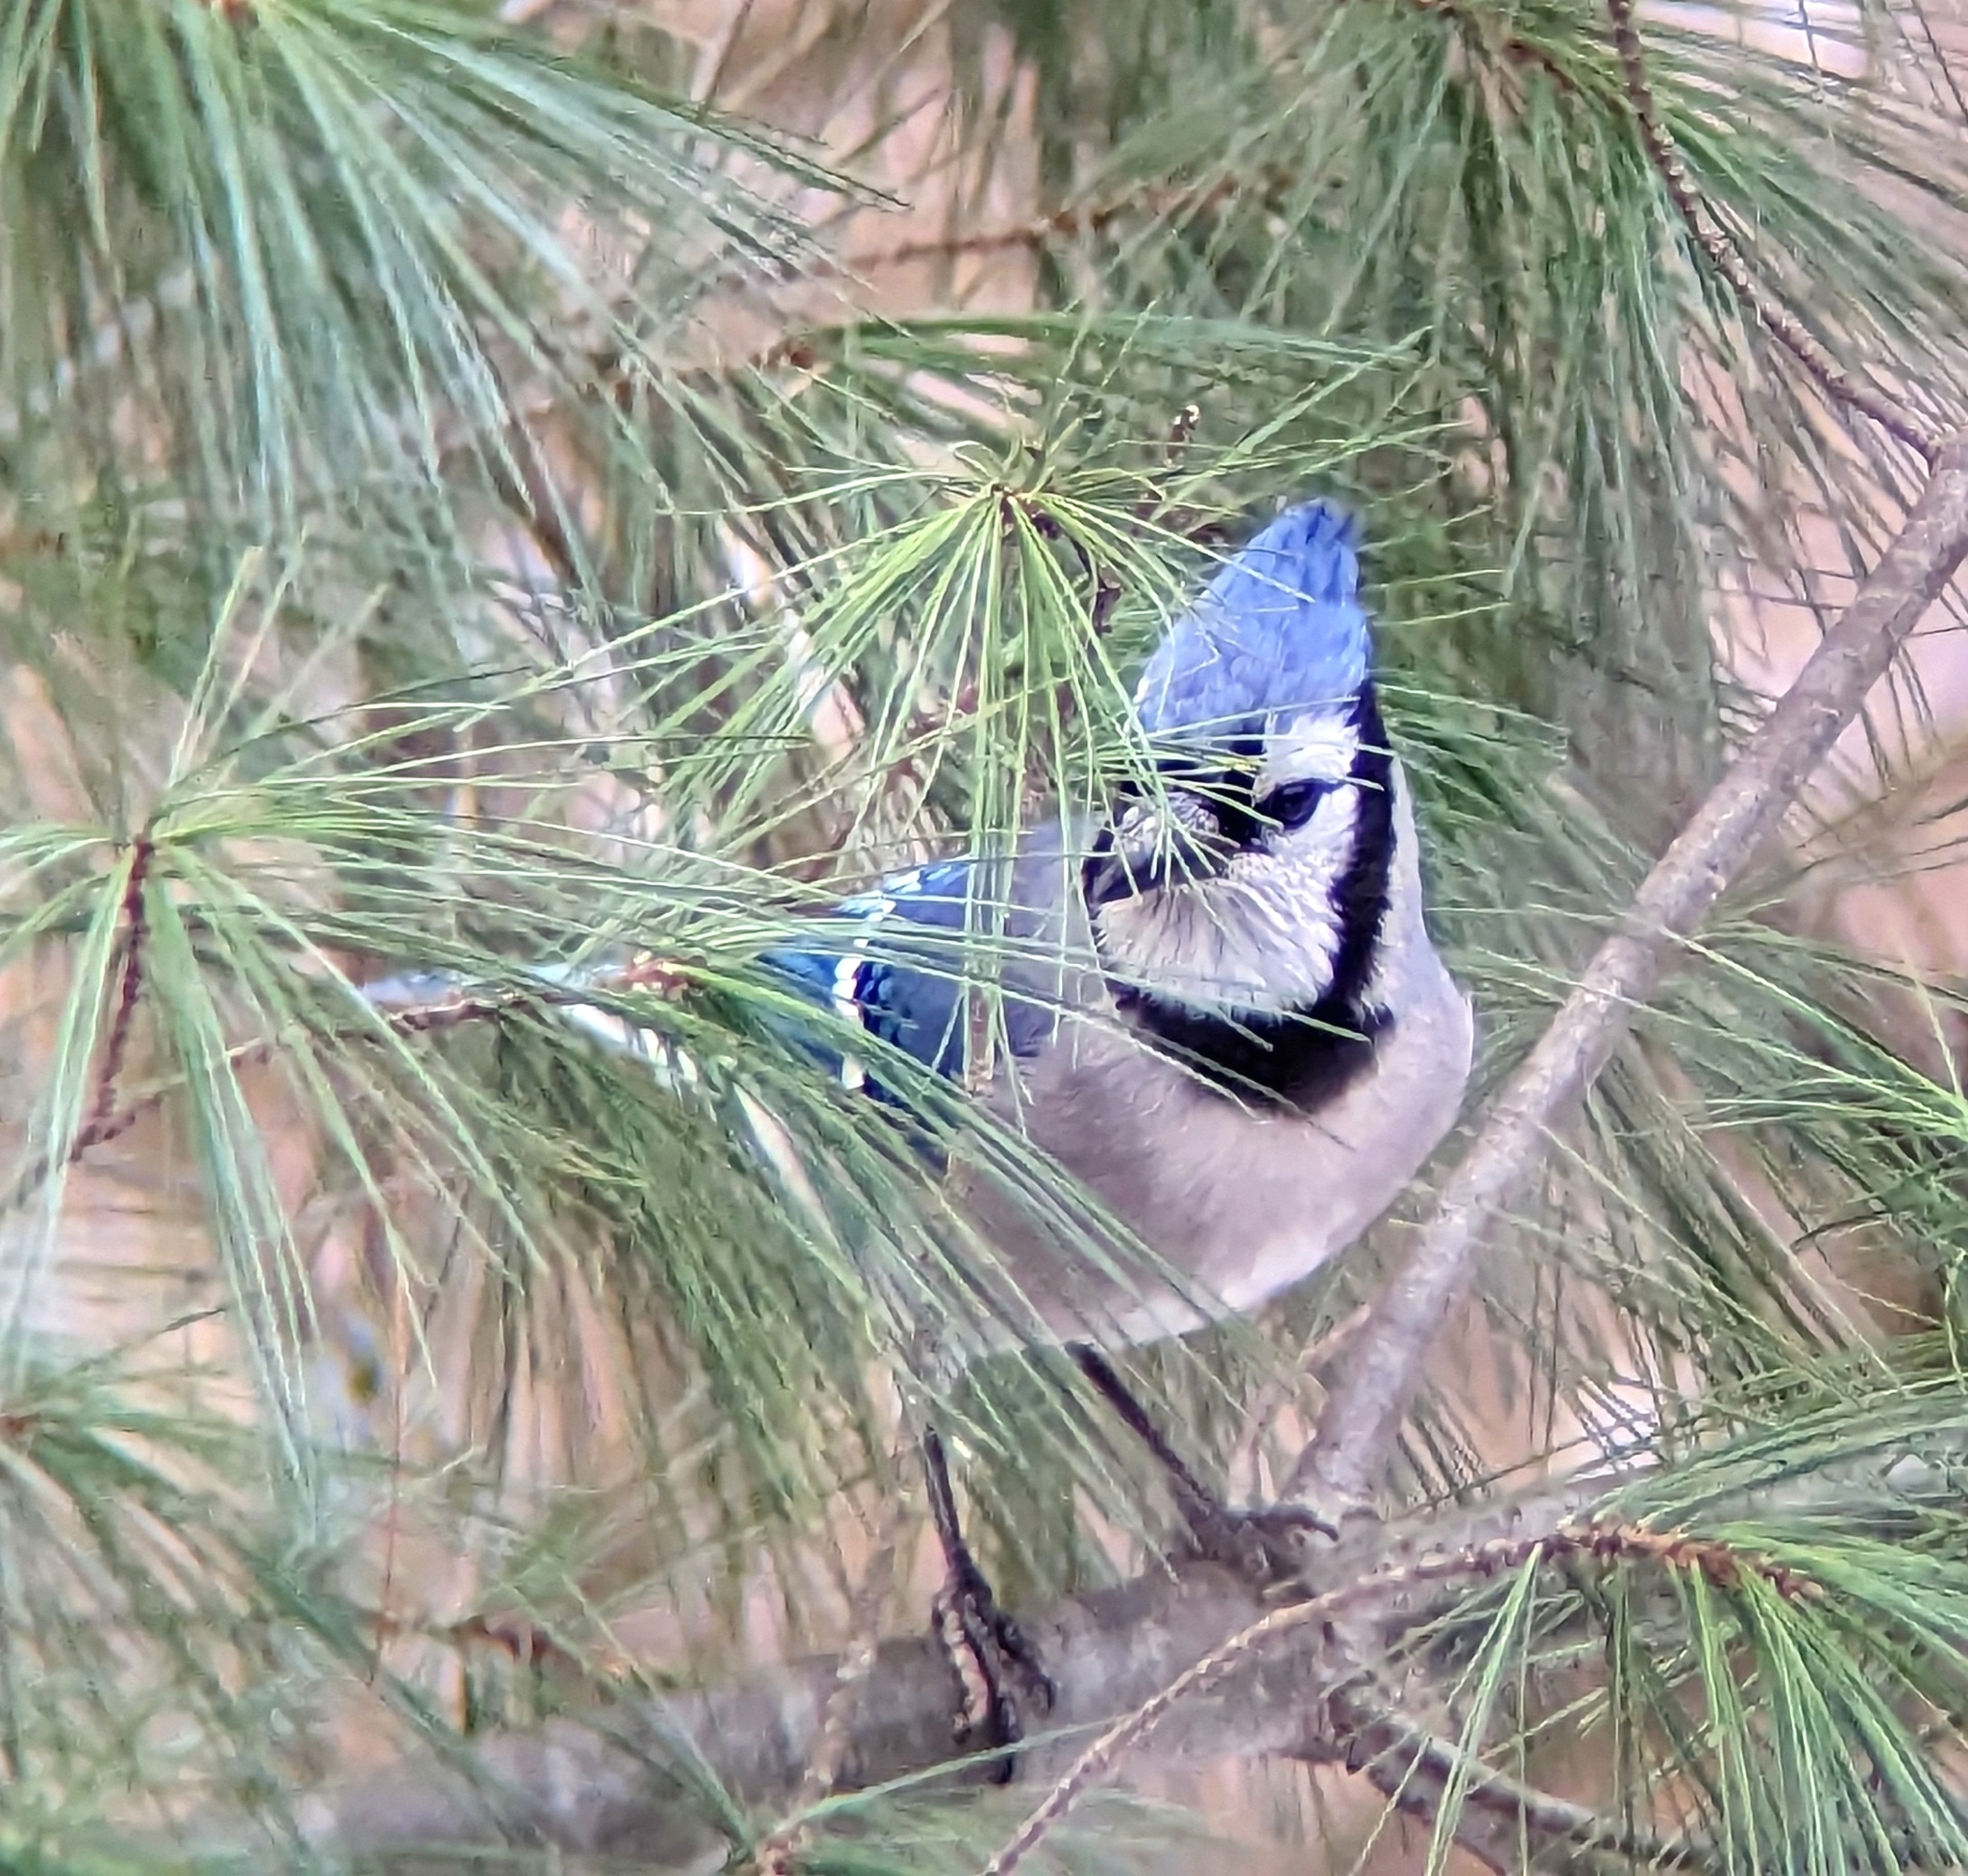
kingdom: Animalia
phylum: Chordata
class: Aves
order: Passeriformes
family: Corvidae
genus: Cyanocitta
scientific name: Cyanocitta cristata
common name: Blue jay
